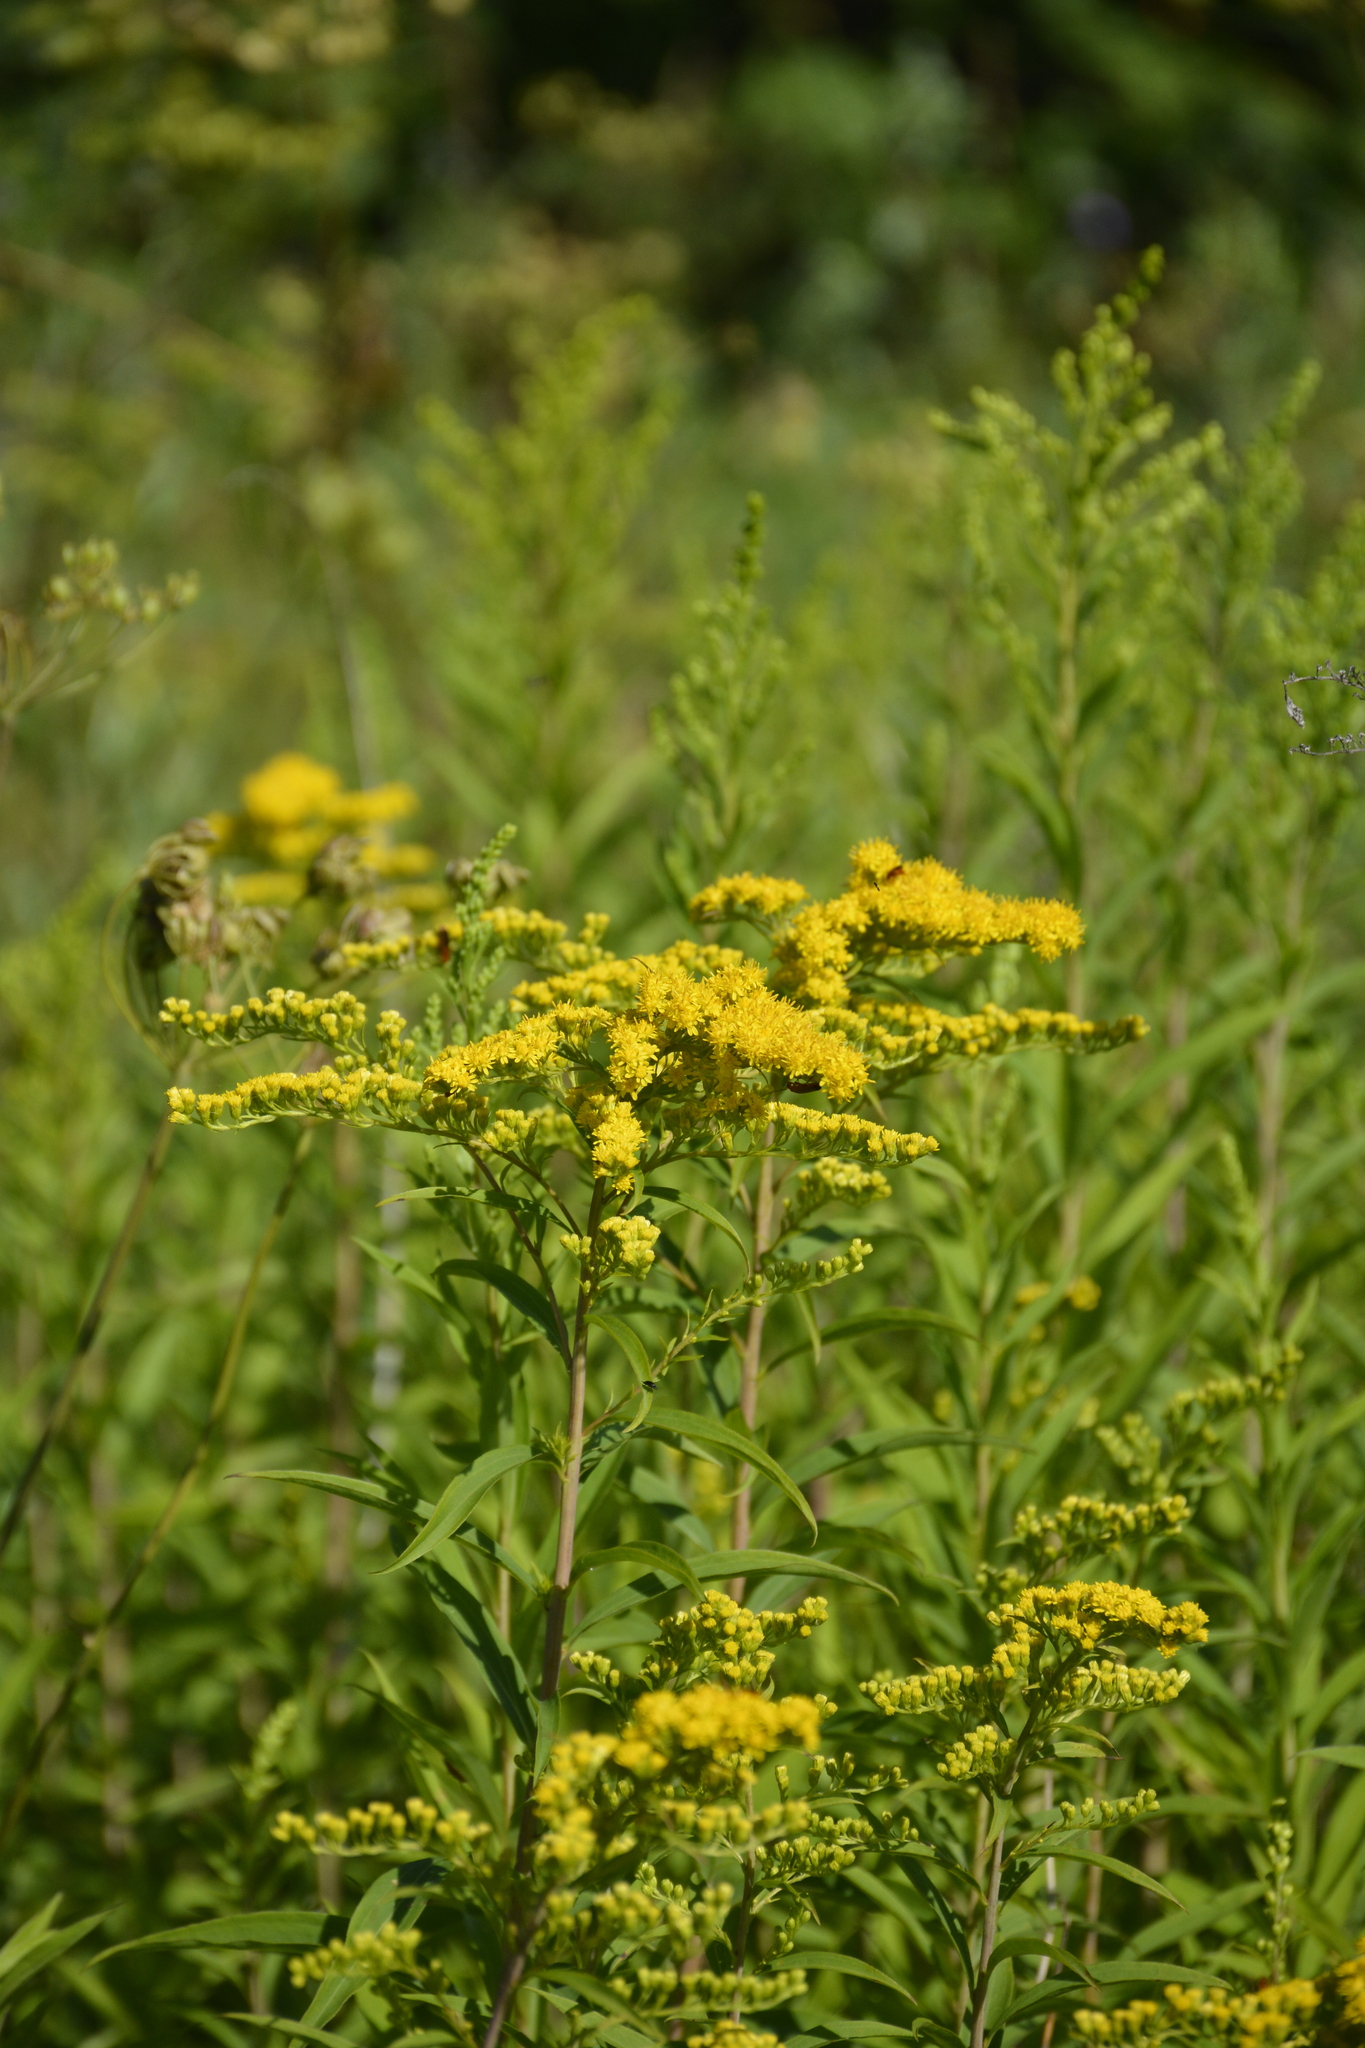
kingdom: Plantae
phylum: Tracheophyta
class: Magnoliopsida
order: Asterales
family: Asteraceae
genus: Solidago
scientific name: Solidago gigantea
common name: Giant goldenrod
